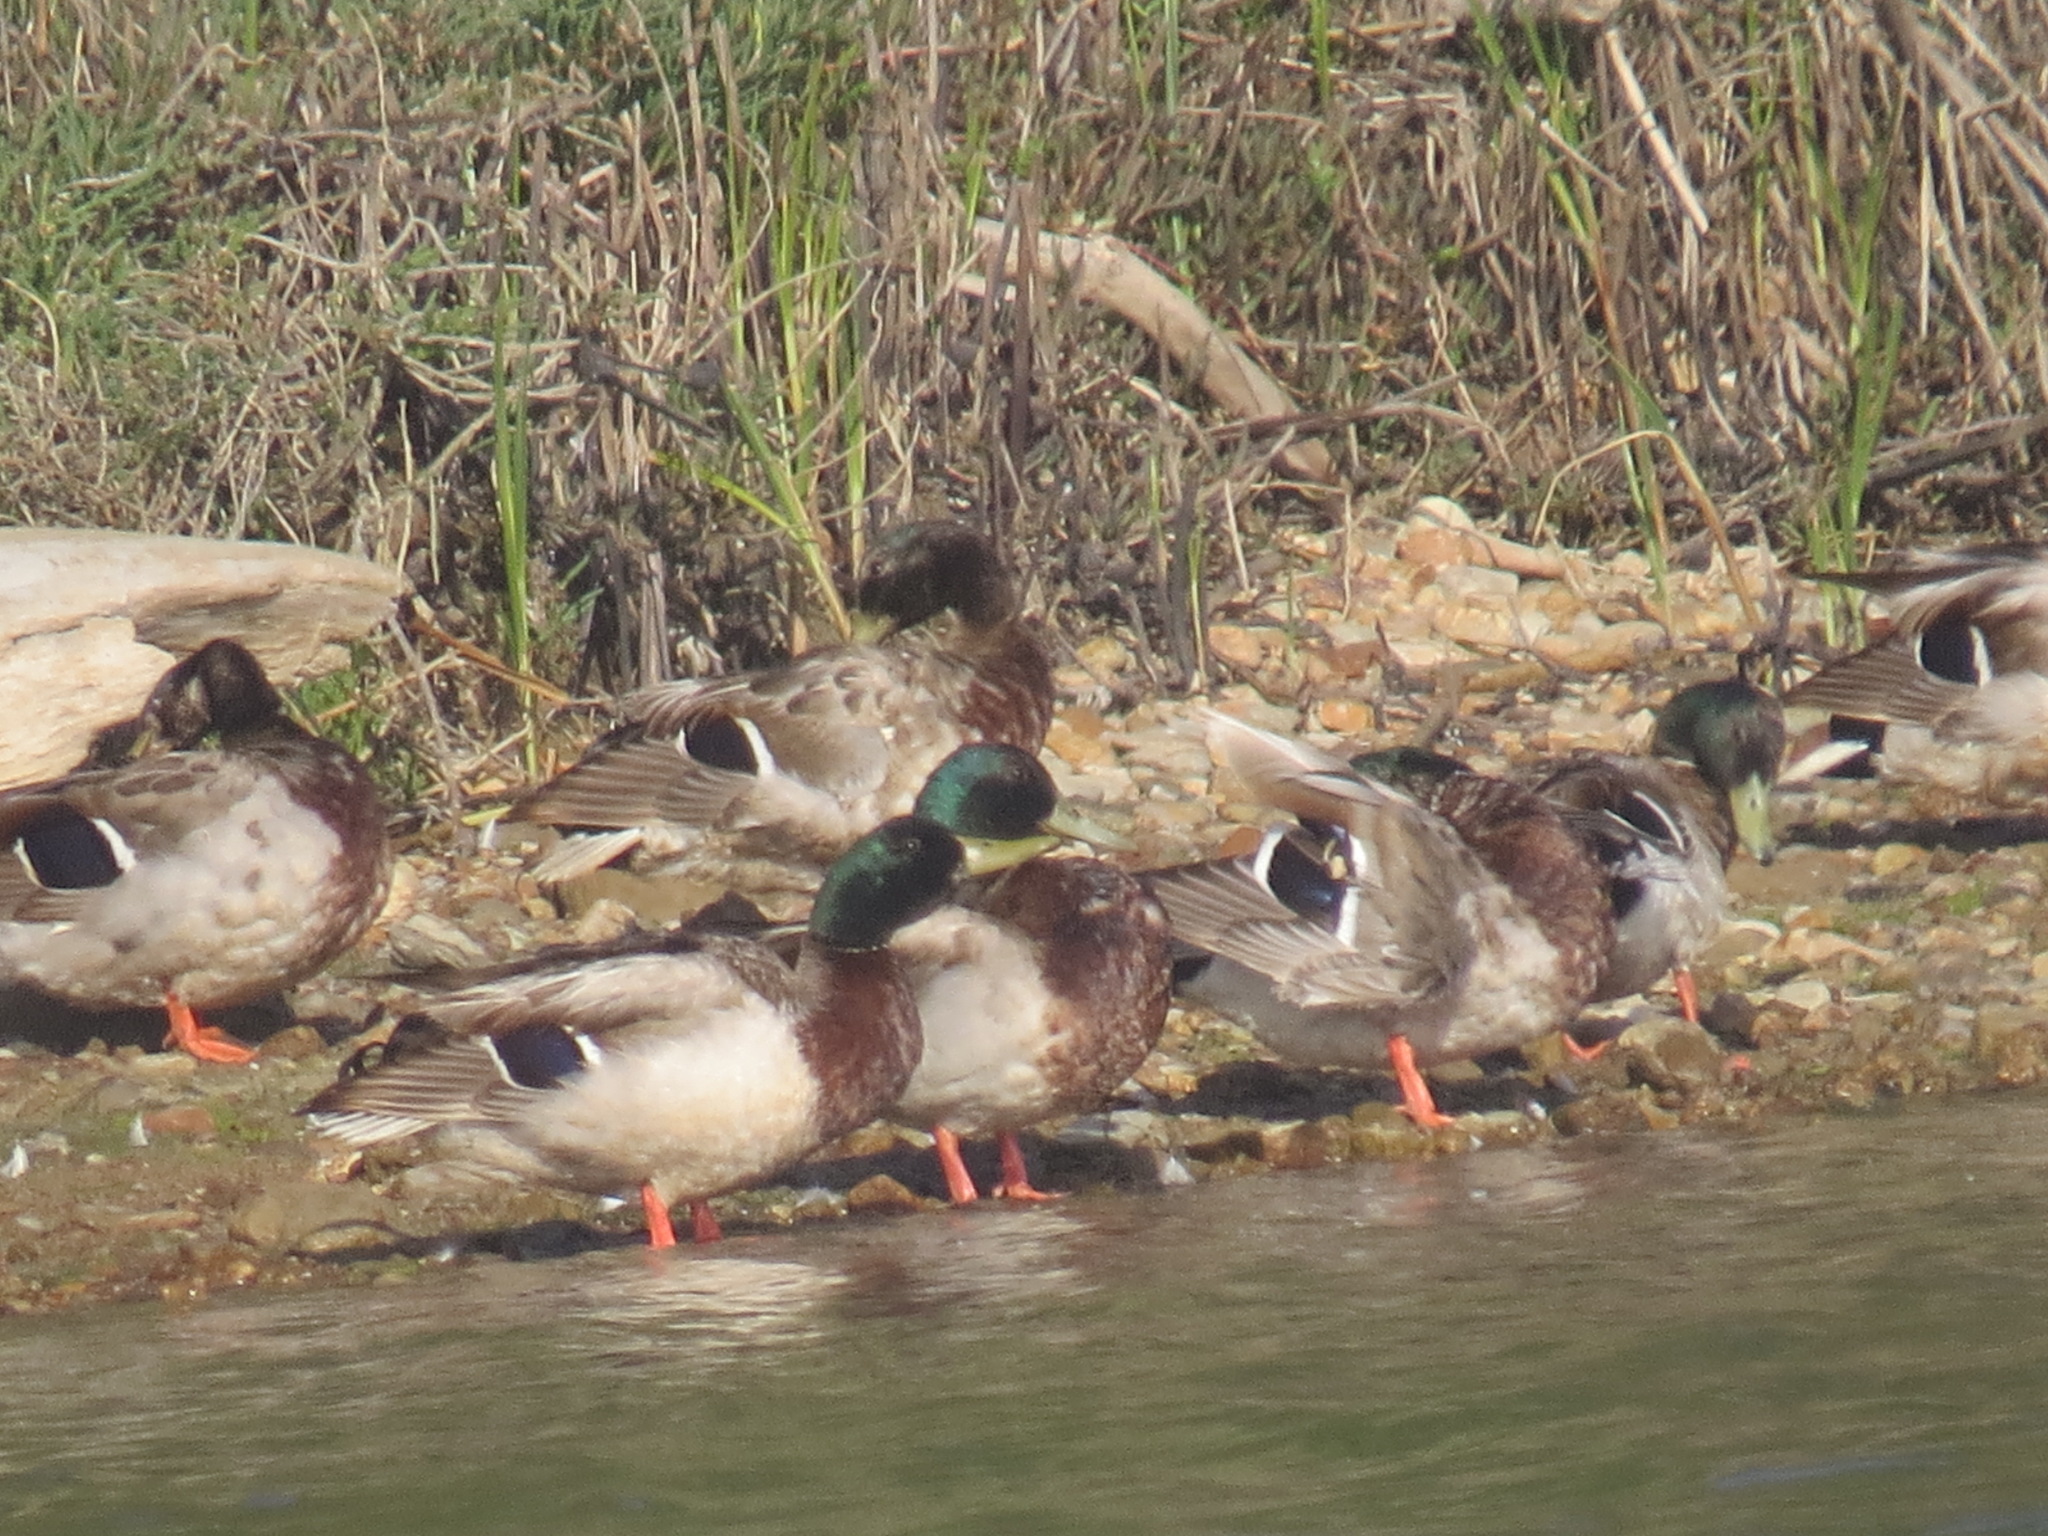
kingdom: Animalia
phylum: Chordata
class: Aves
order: Anseriformes
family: Anatidae
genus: Anas
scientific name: Anas platyrhynchos
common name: Mallard
